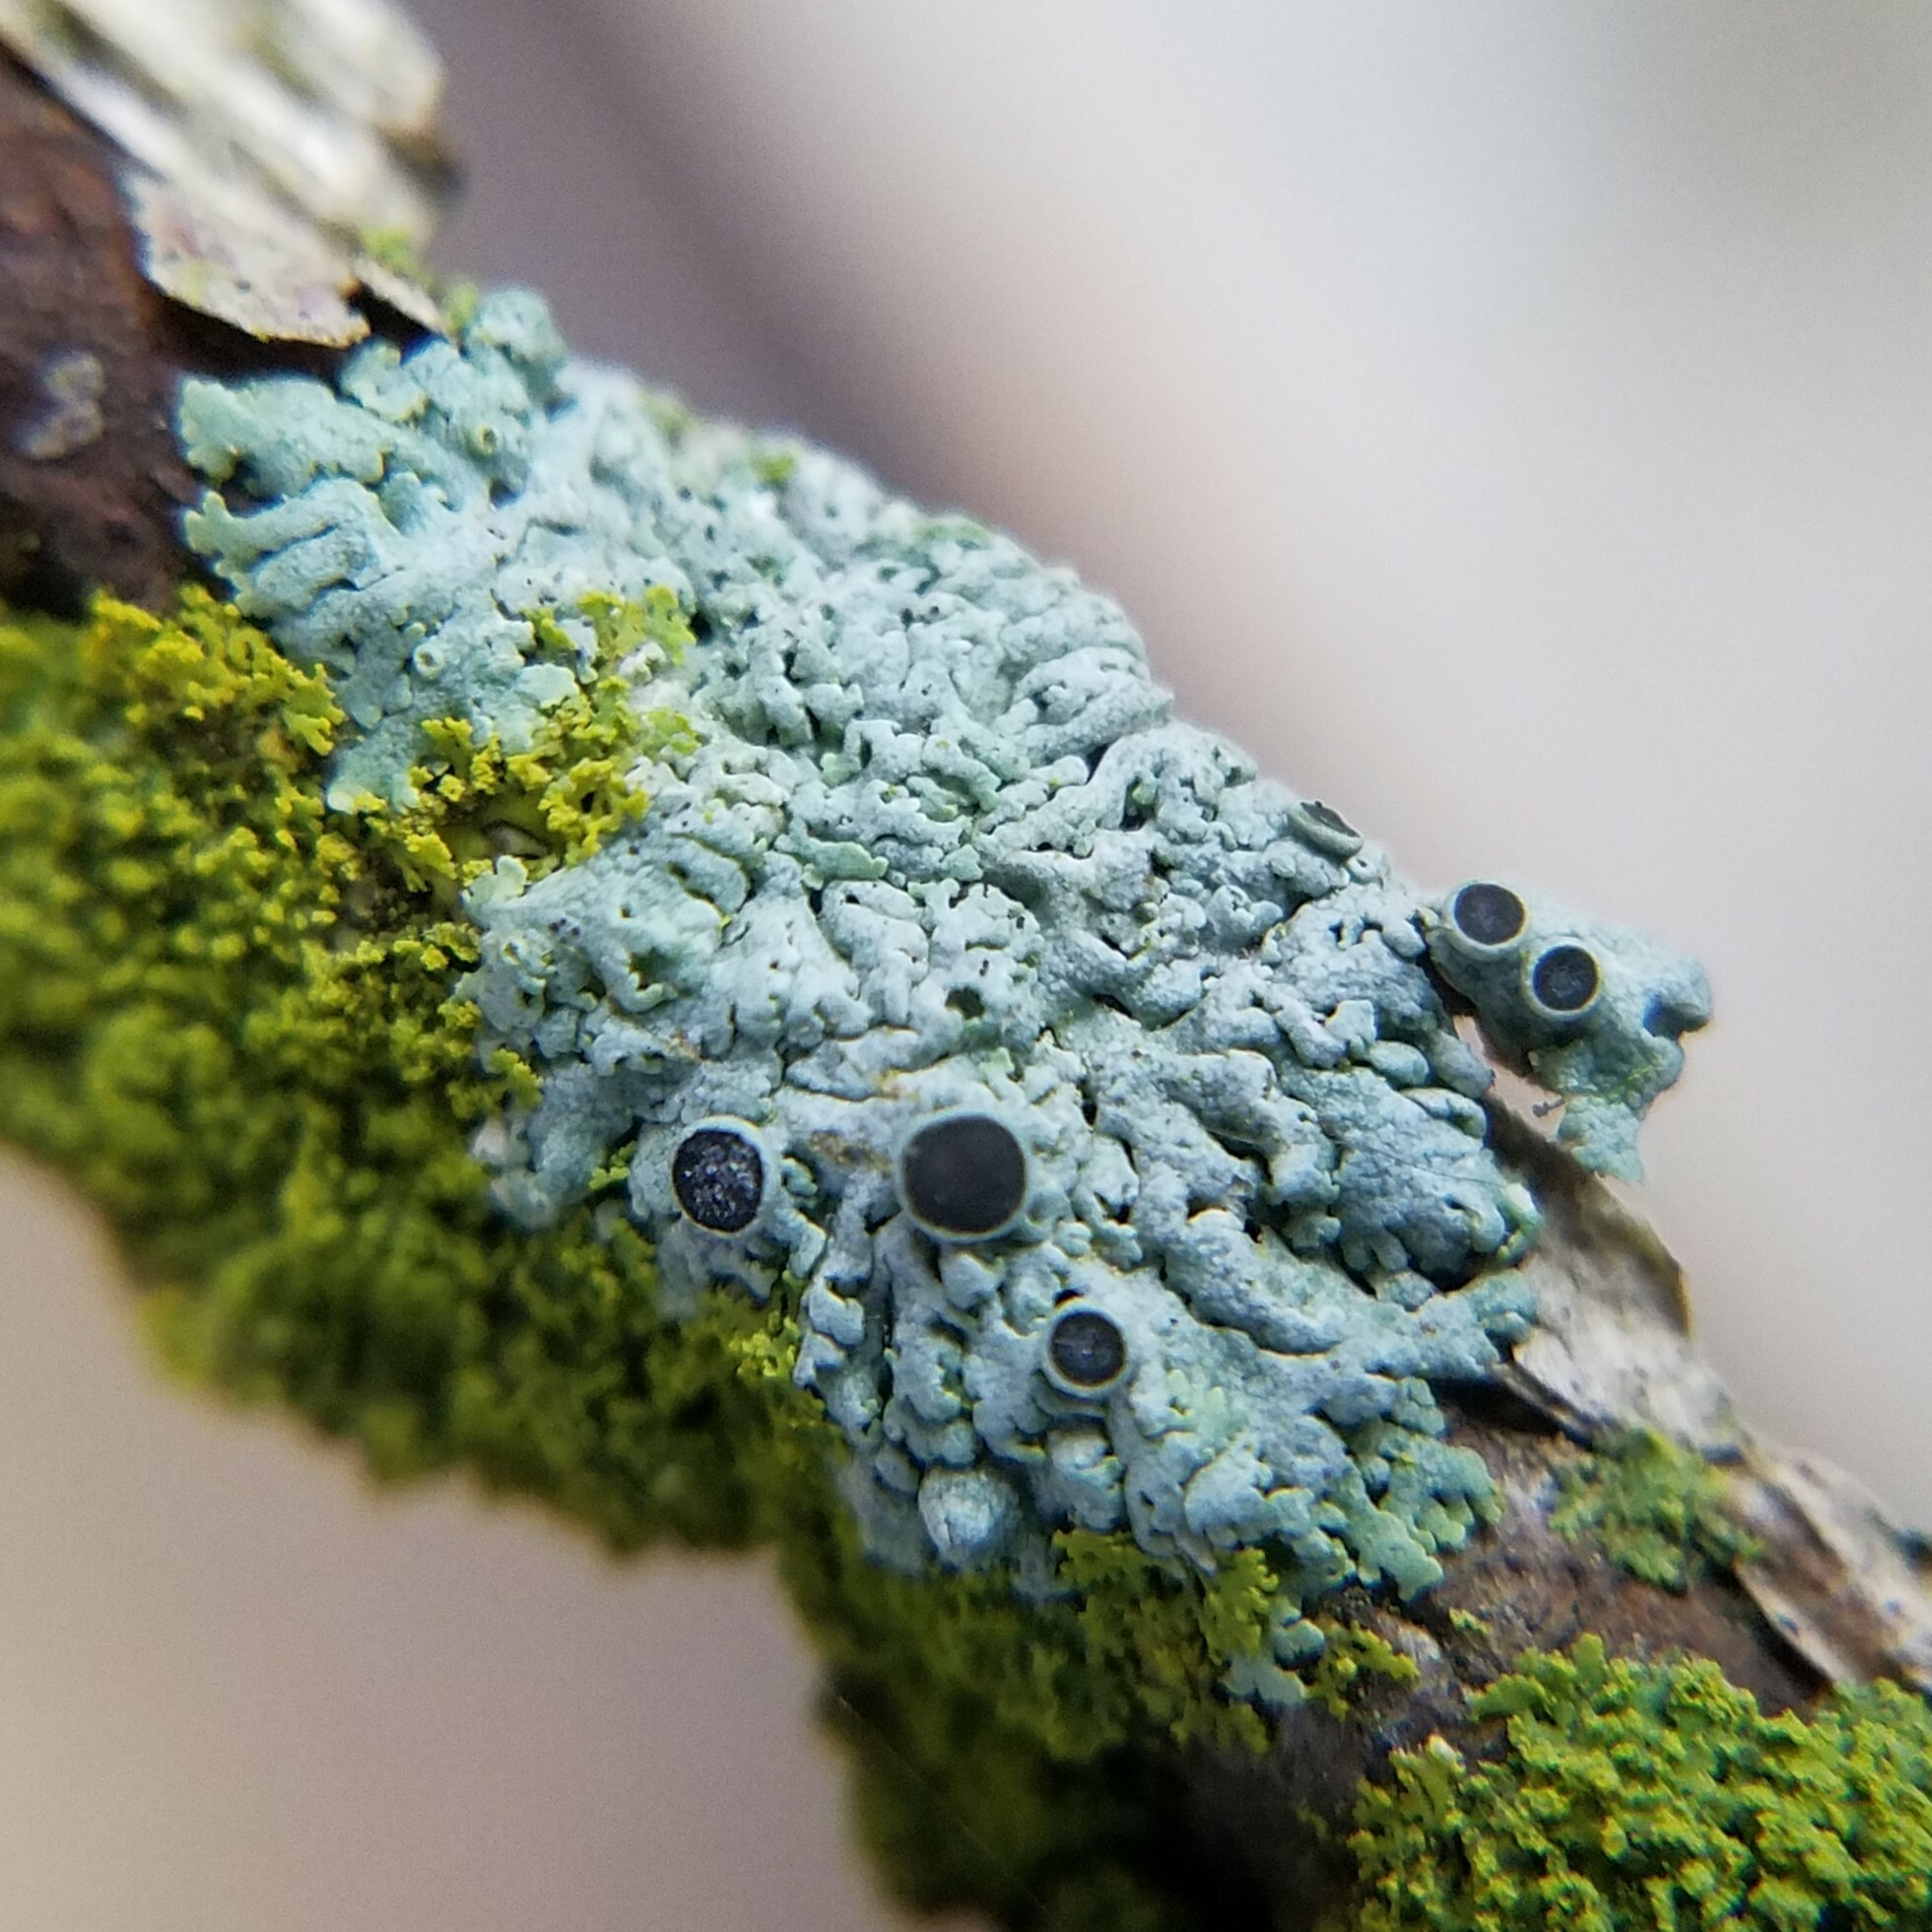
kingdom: Fungi
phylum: Ascomycota
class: Lecanoromycetes
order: Caliciales
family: Physciaceae
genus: Physcia
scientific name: Physcia pumilior
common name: Lesser gray legs
